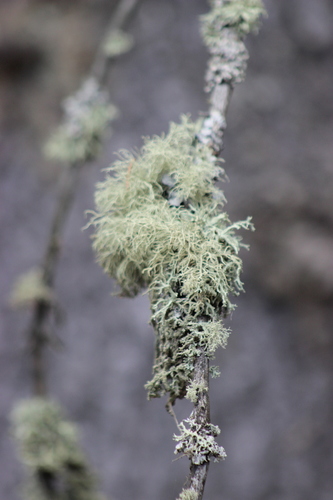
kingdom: Fungi
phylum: Ascomycota
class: Lecanoromycetes
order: Lecanorales
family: Parmeliaceae
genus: Usnea
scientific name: Usnea
